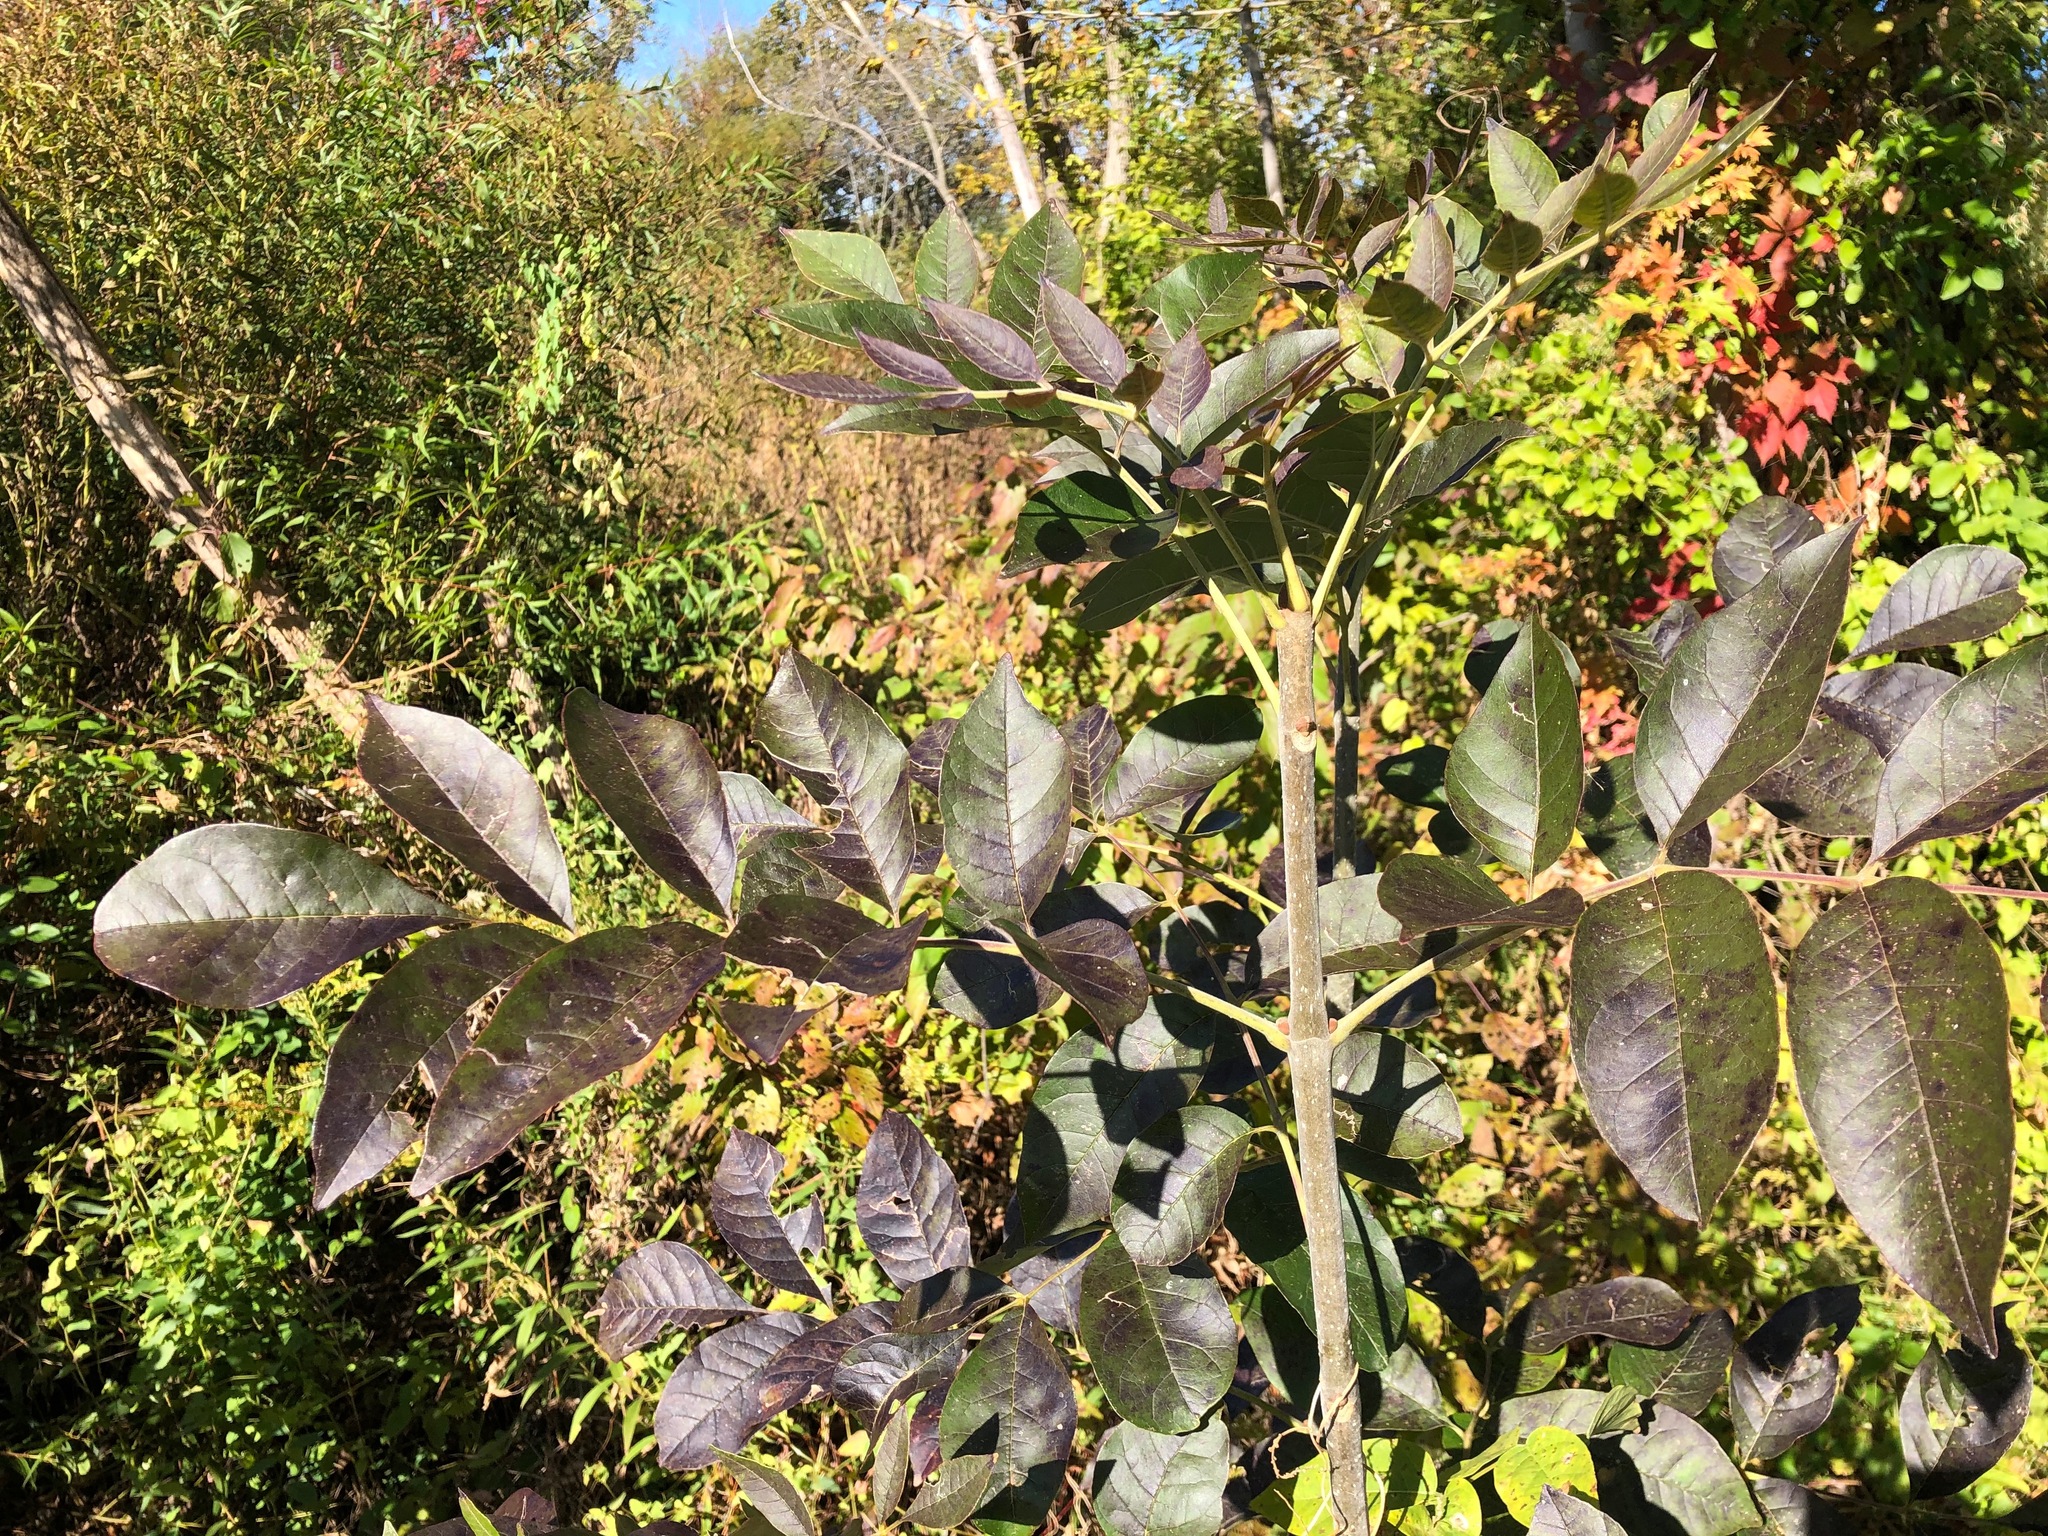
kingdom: Plantae
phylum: Tracheophyta
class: Magnoliopsida
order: Lamiales
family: Oleaceae
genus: Fraxinus
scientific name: Fraxinus pennsylvanica
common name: Green ash
